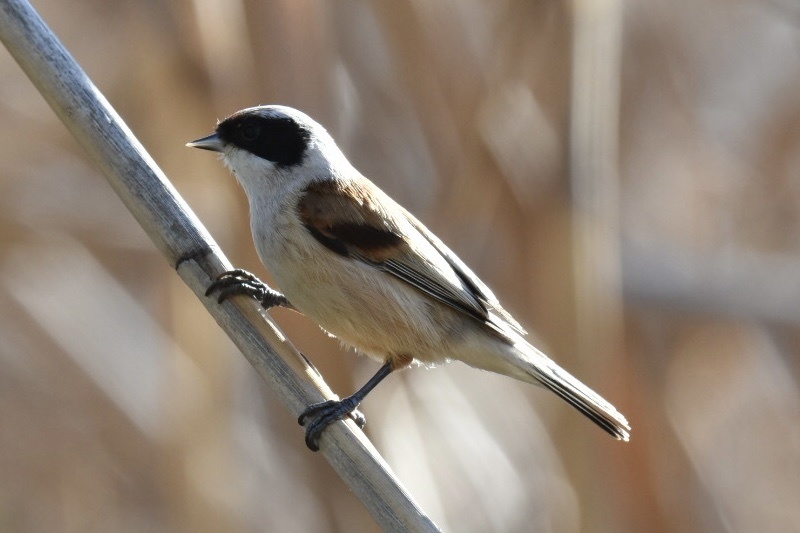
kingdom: Animalia
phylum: Chordata
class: Aves
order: Passeriformes
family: Remizidae
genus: Remiz
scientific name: Remiz pendulinus
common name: Eurasian penduline tit
